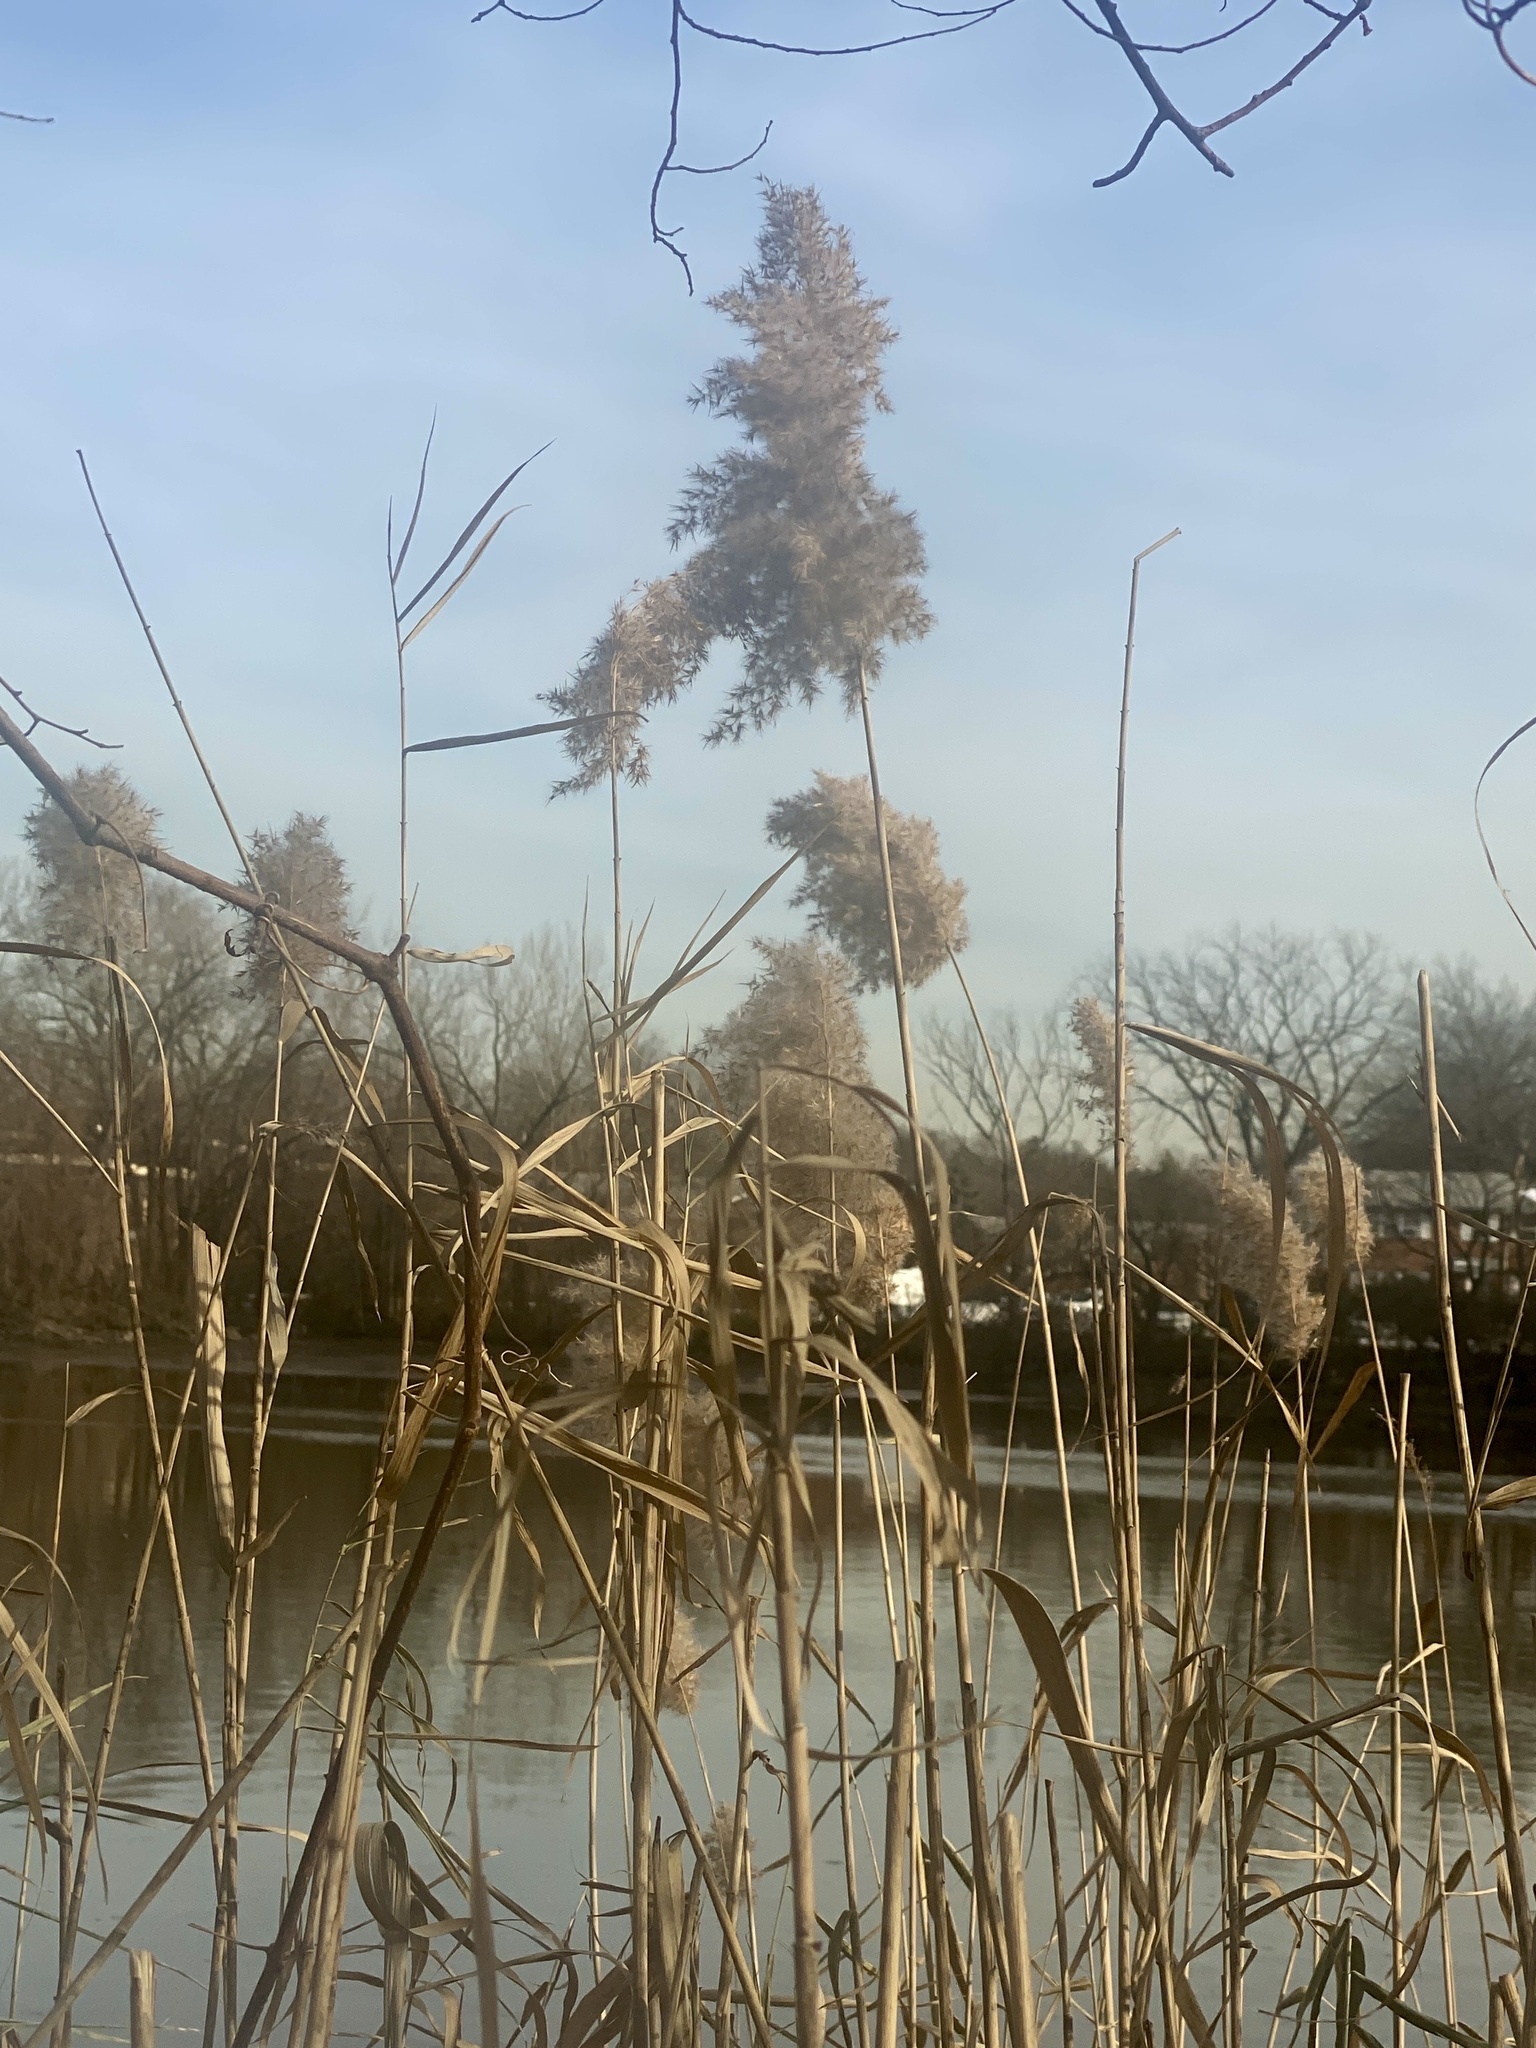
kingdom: Plantae
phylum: Tracheophyta
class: Liliopsida
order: Poales
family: Poaceae
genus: Phragmites
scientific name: Phragmites australis
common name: Common reed
